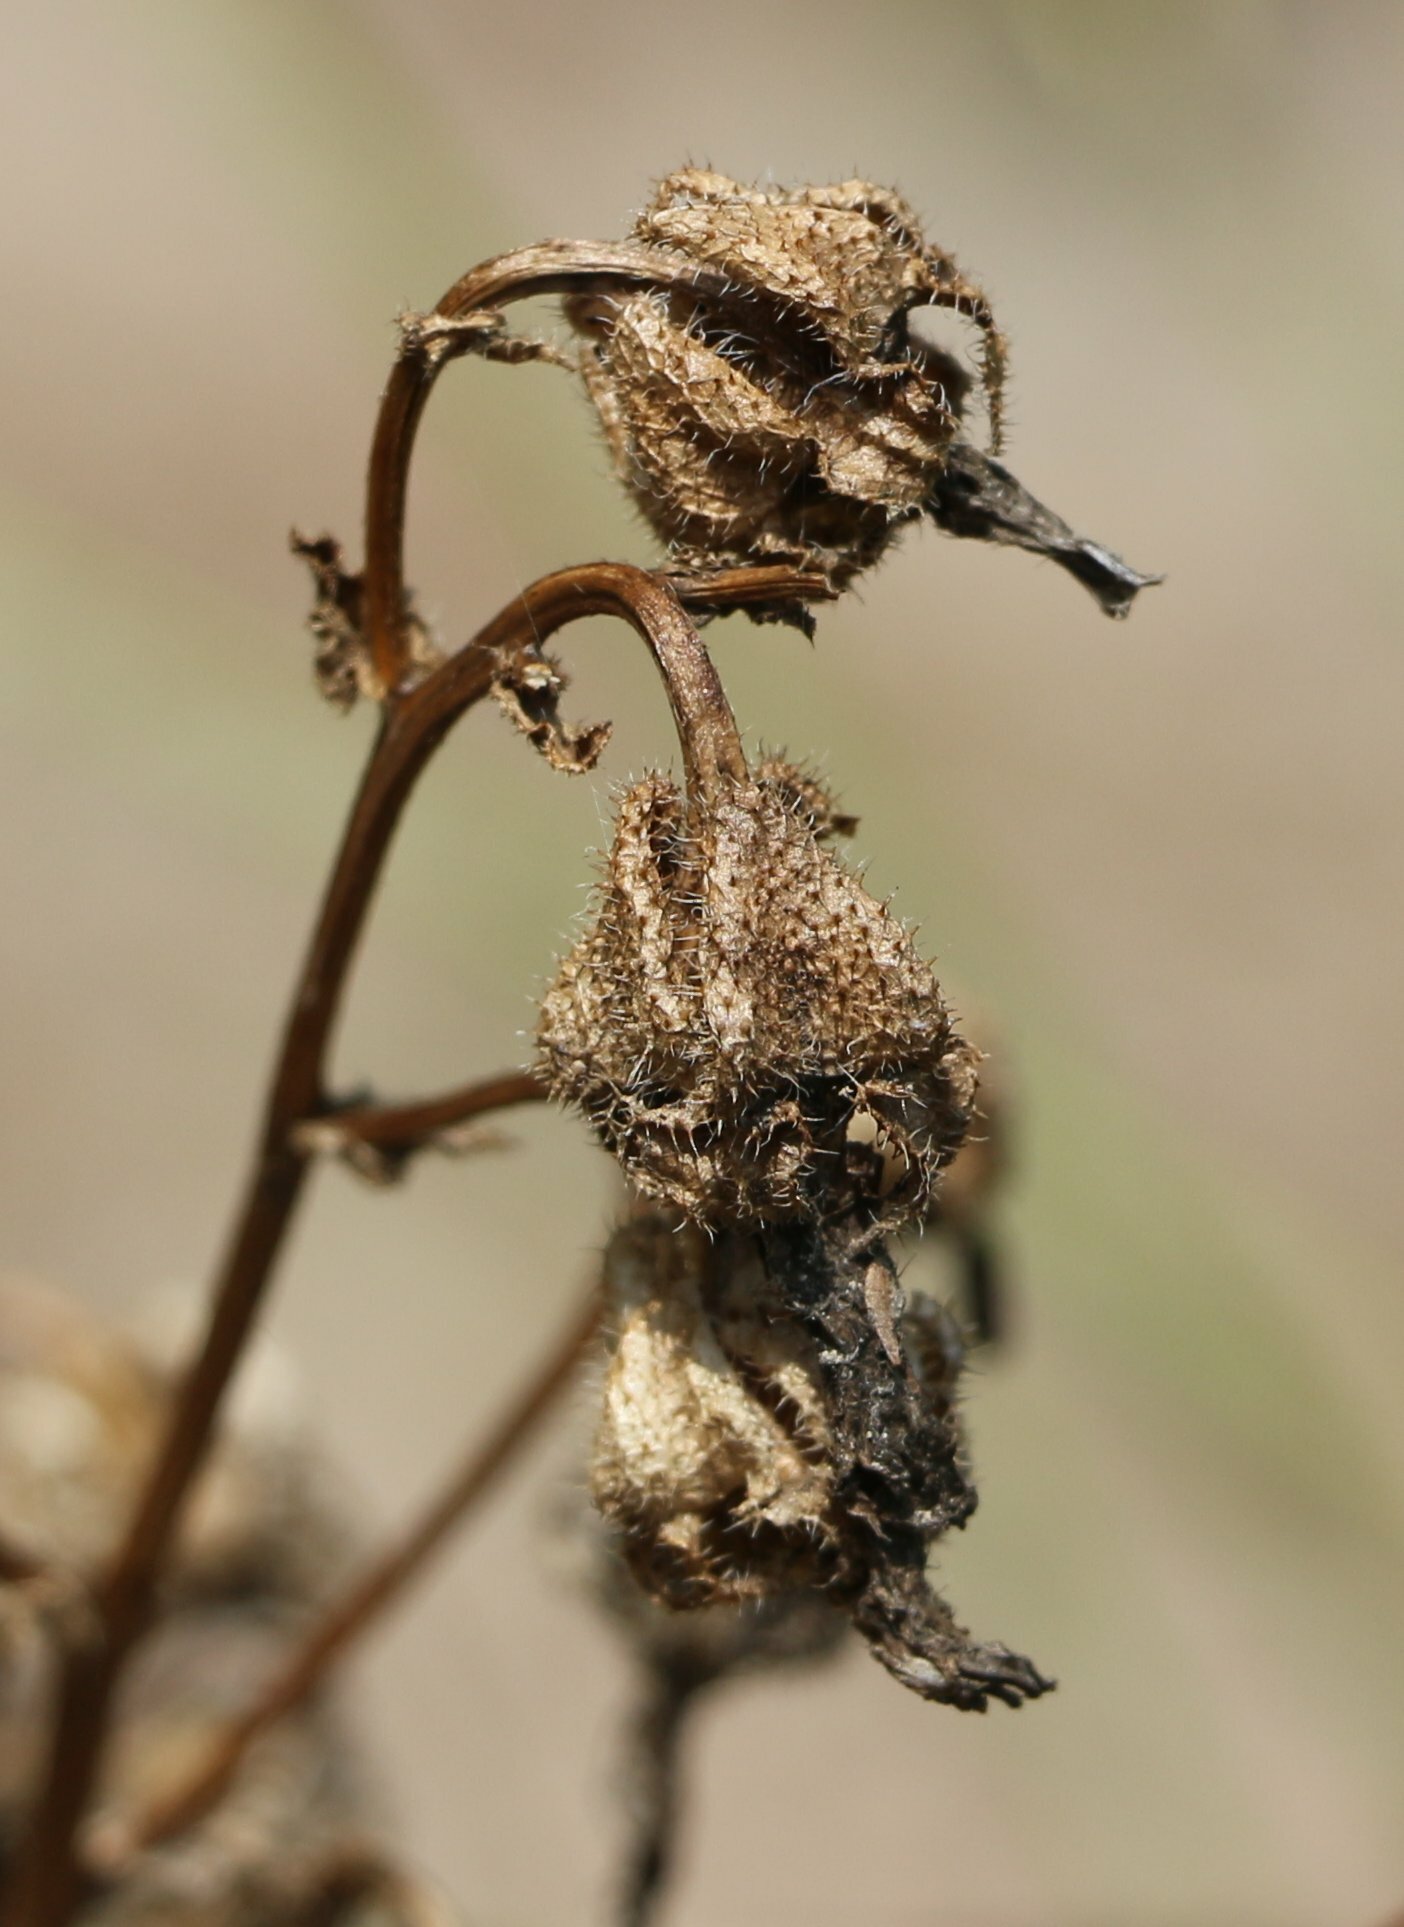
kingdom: Plantae
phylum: Tracheophyta
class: Magnoliopsida
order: Asterales
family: Campanulaceae
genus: Campanula
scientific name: Campanula komarovii
